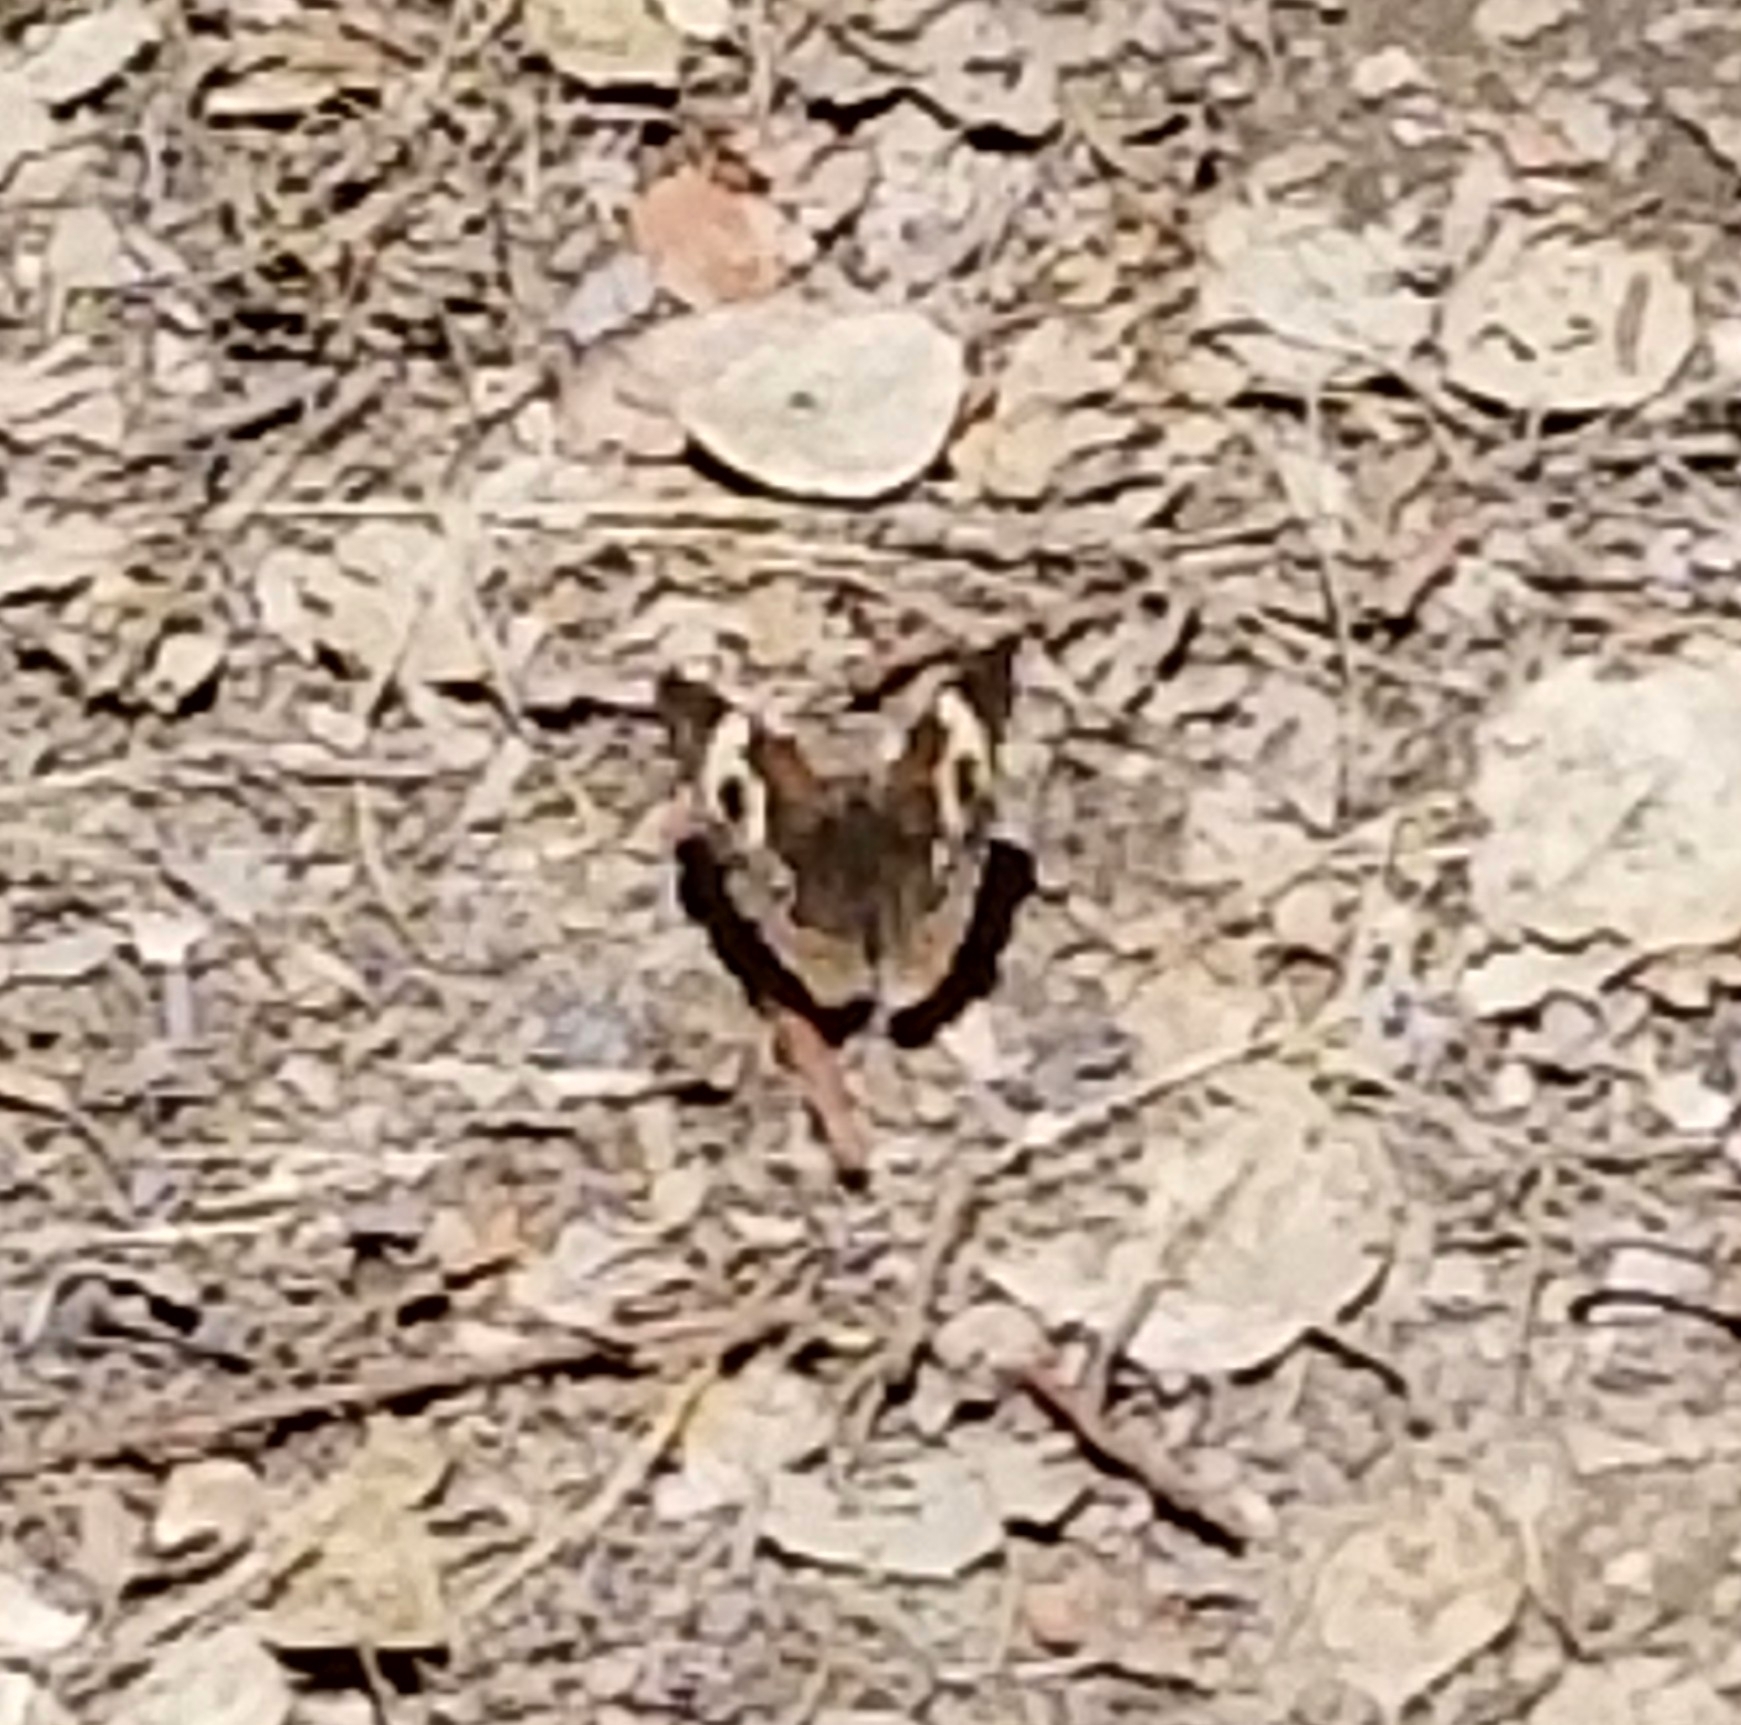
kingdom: Animalia
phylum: Arthropoda
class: Insecta
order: Lepidoptera
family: Nymphalidae
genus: Junonia
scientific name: Junonia grisea
